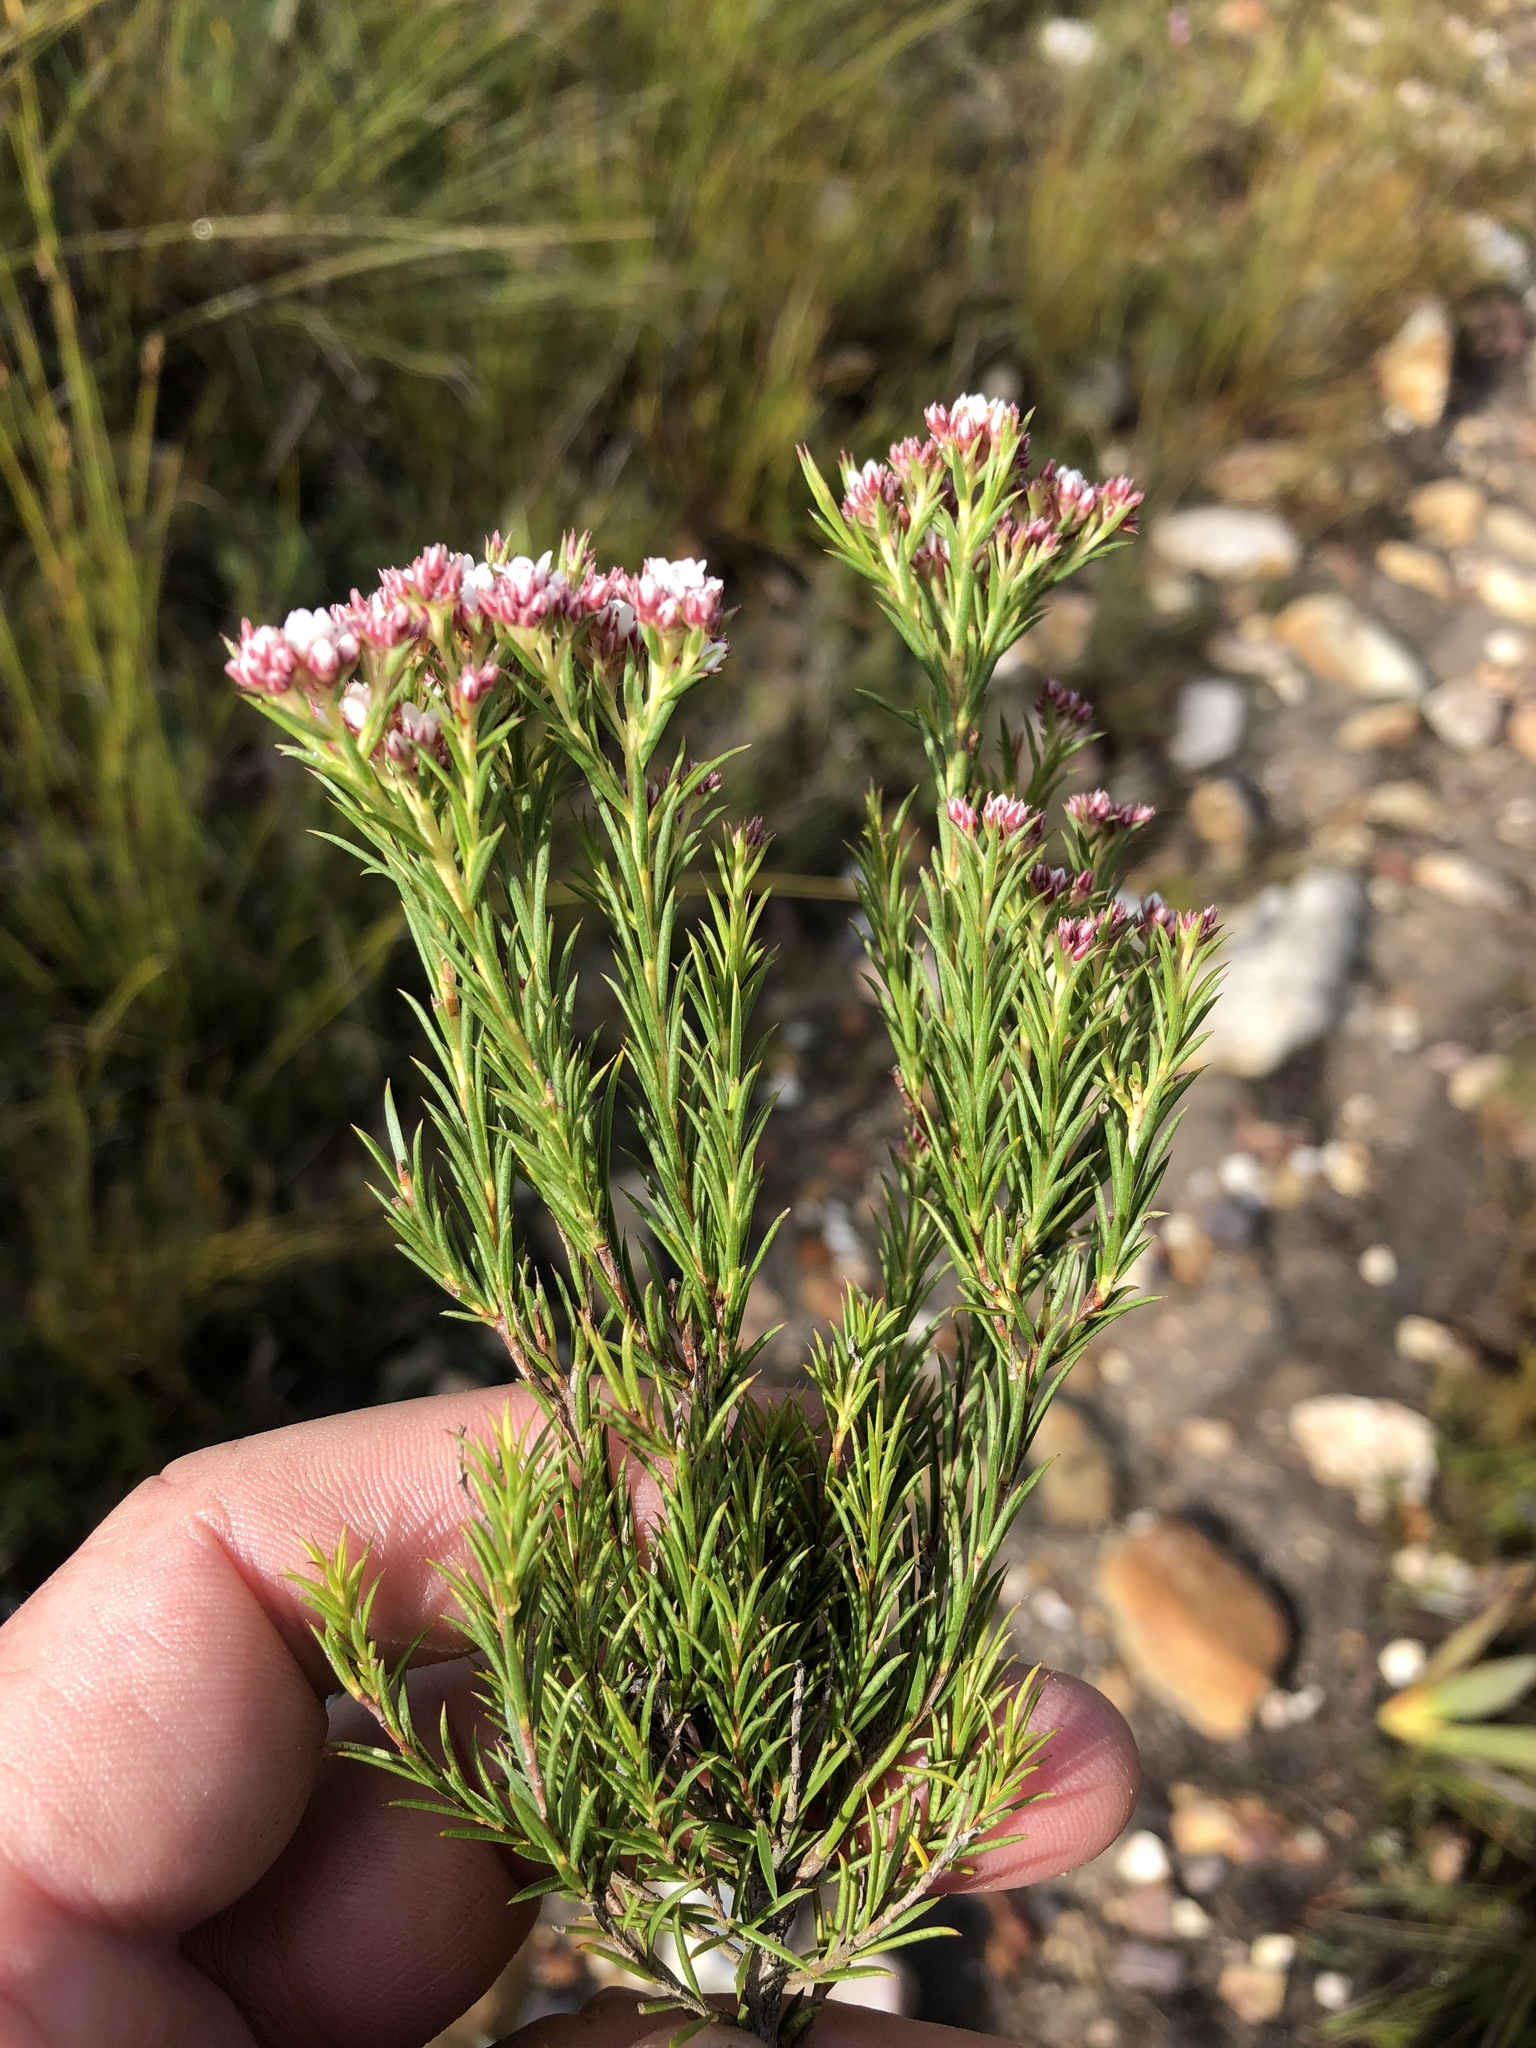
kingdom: Plantae
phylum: Tracheophyta
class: Magnoliopsida
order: Sapindales
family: Rutaceae
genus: Diosma
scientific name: Diosma hirsuta
